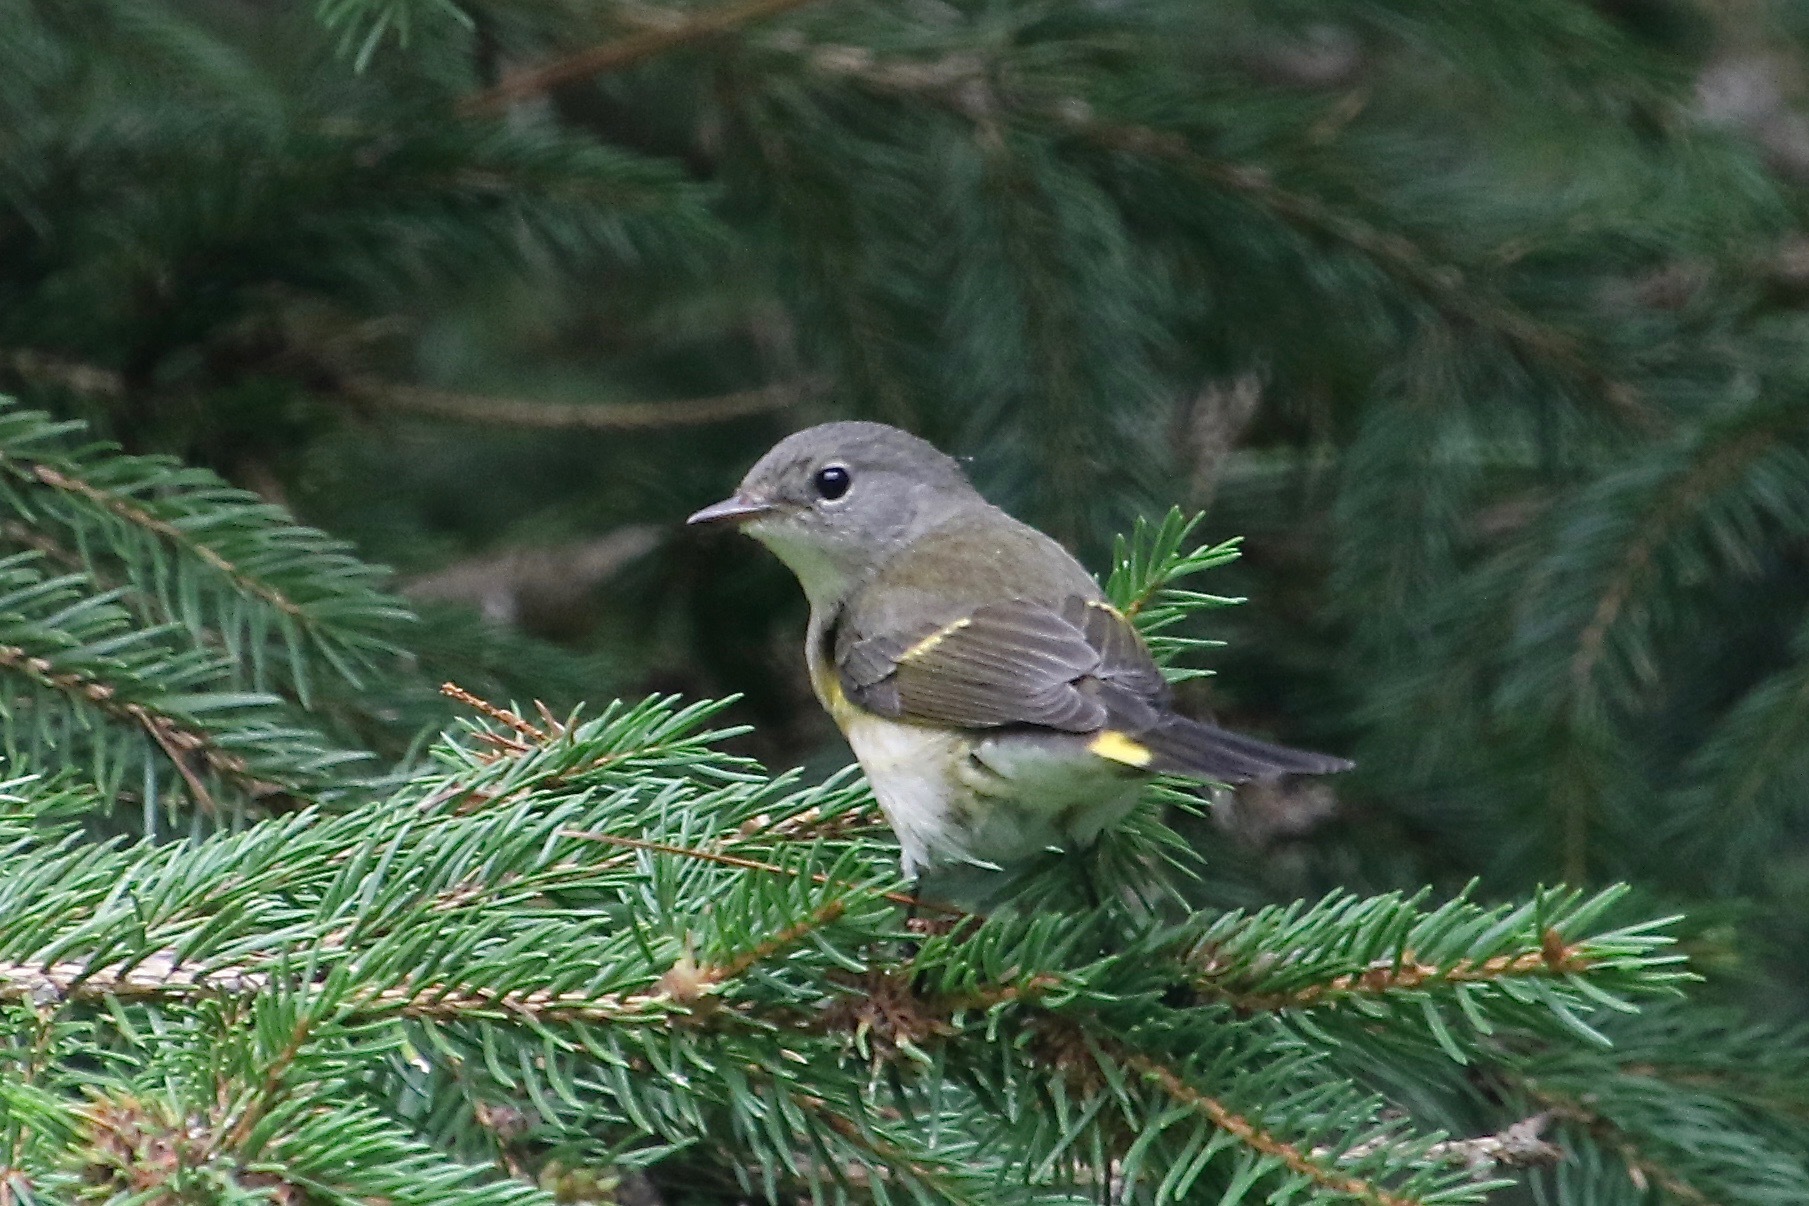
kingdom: Animalia
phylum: Chordata
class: Aves
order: Passeriformes
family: Parulidae
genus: Setophaga
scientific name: Setophaga ruticilla
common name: American redstart
